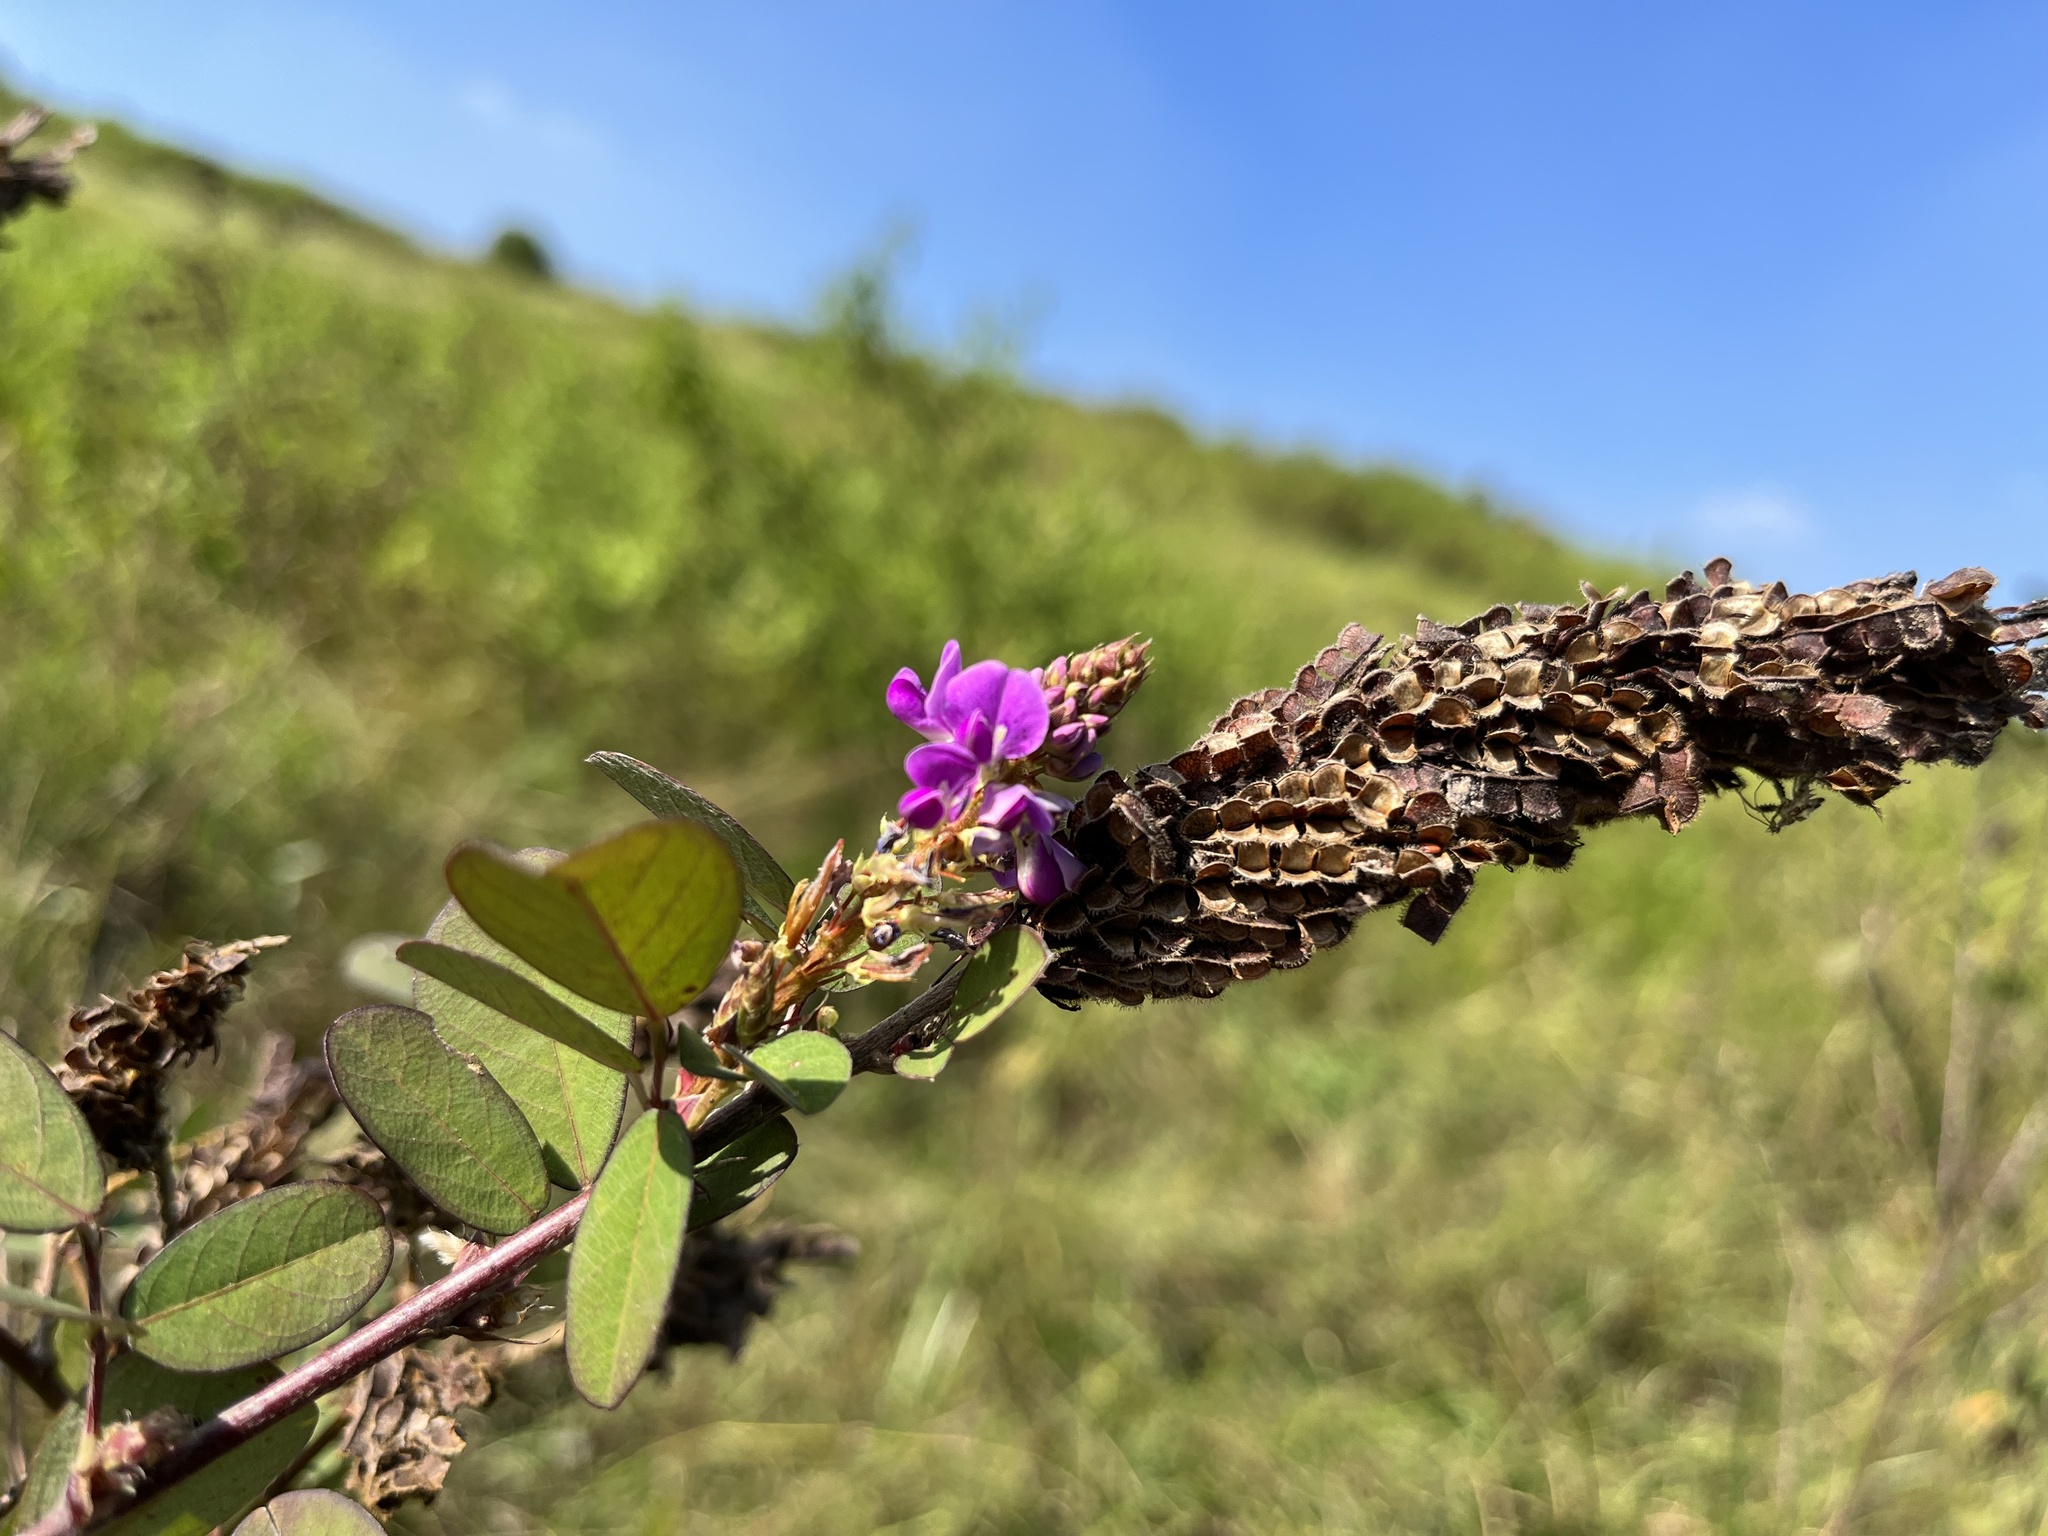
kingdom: Plantae
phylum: Tracheophyta
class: Magnoliopsida
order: Fabales
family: Fabaceae
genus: Grona
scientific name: Grona heterocarpos
